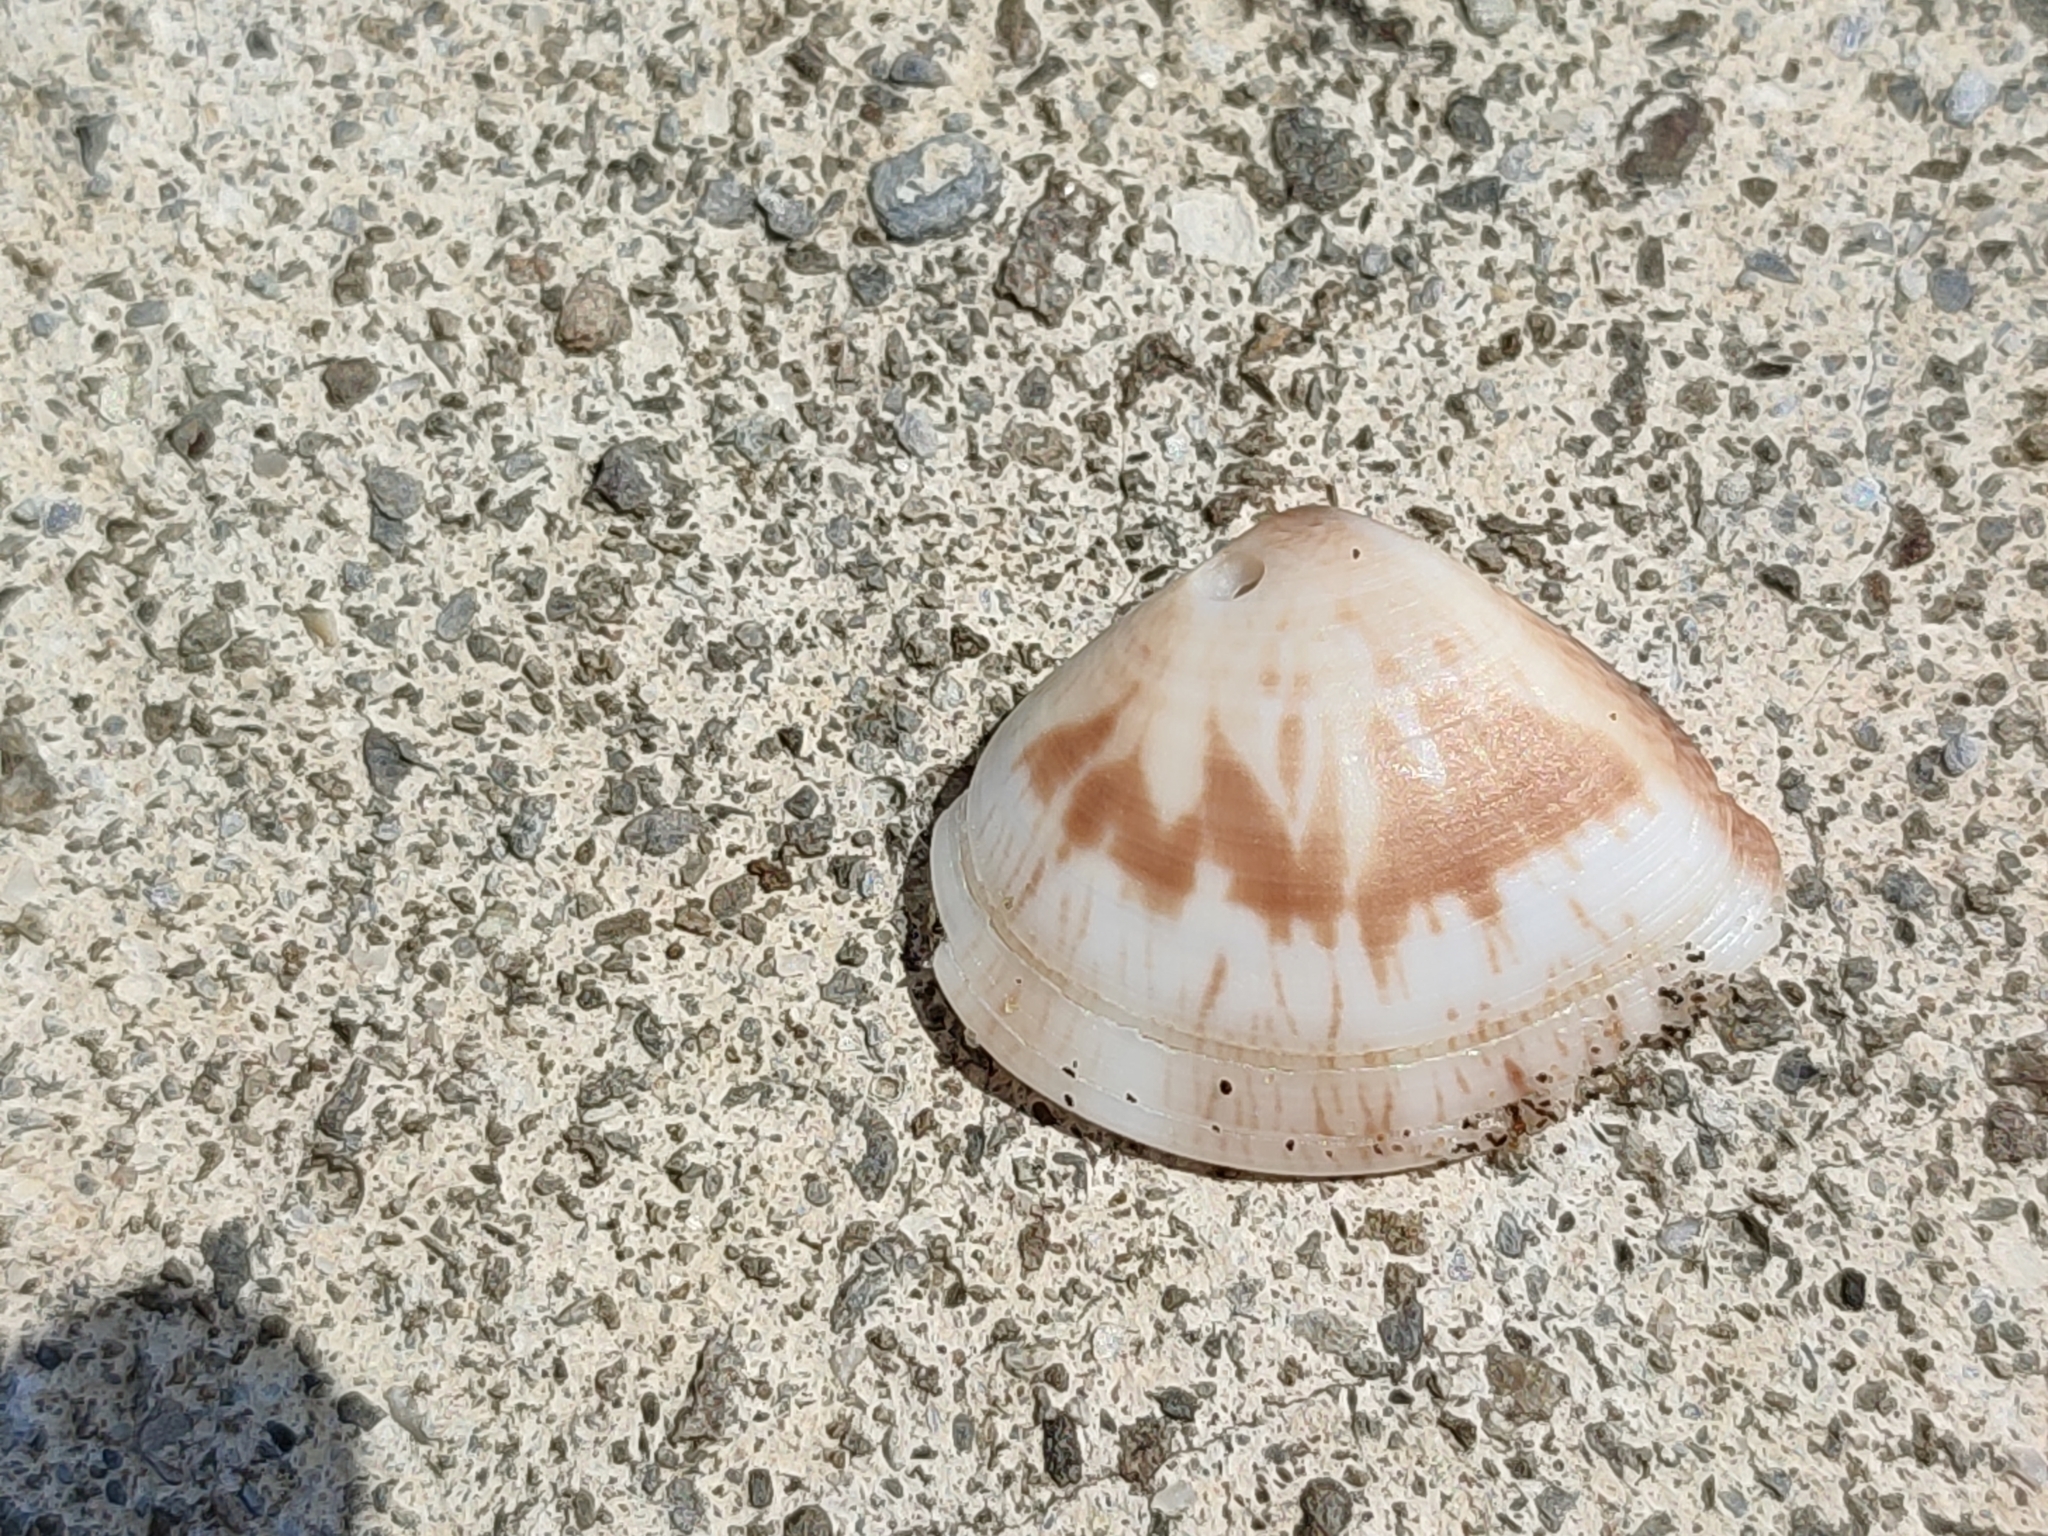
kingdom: Animalia
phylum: Mollusca
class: Bivalvia
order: Venerida
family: Veneridae
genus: Macridiscus
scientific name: Macridiscus aequilatera
